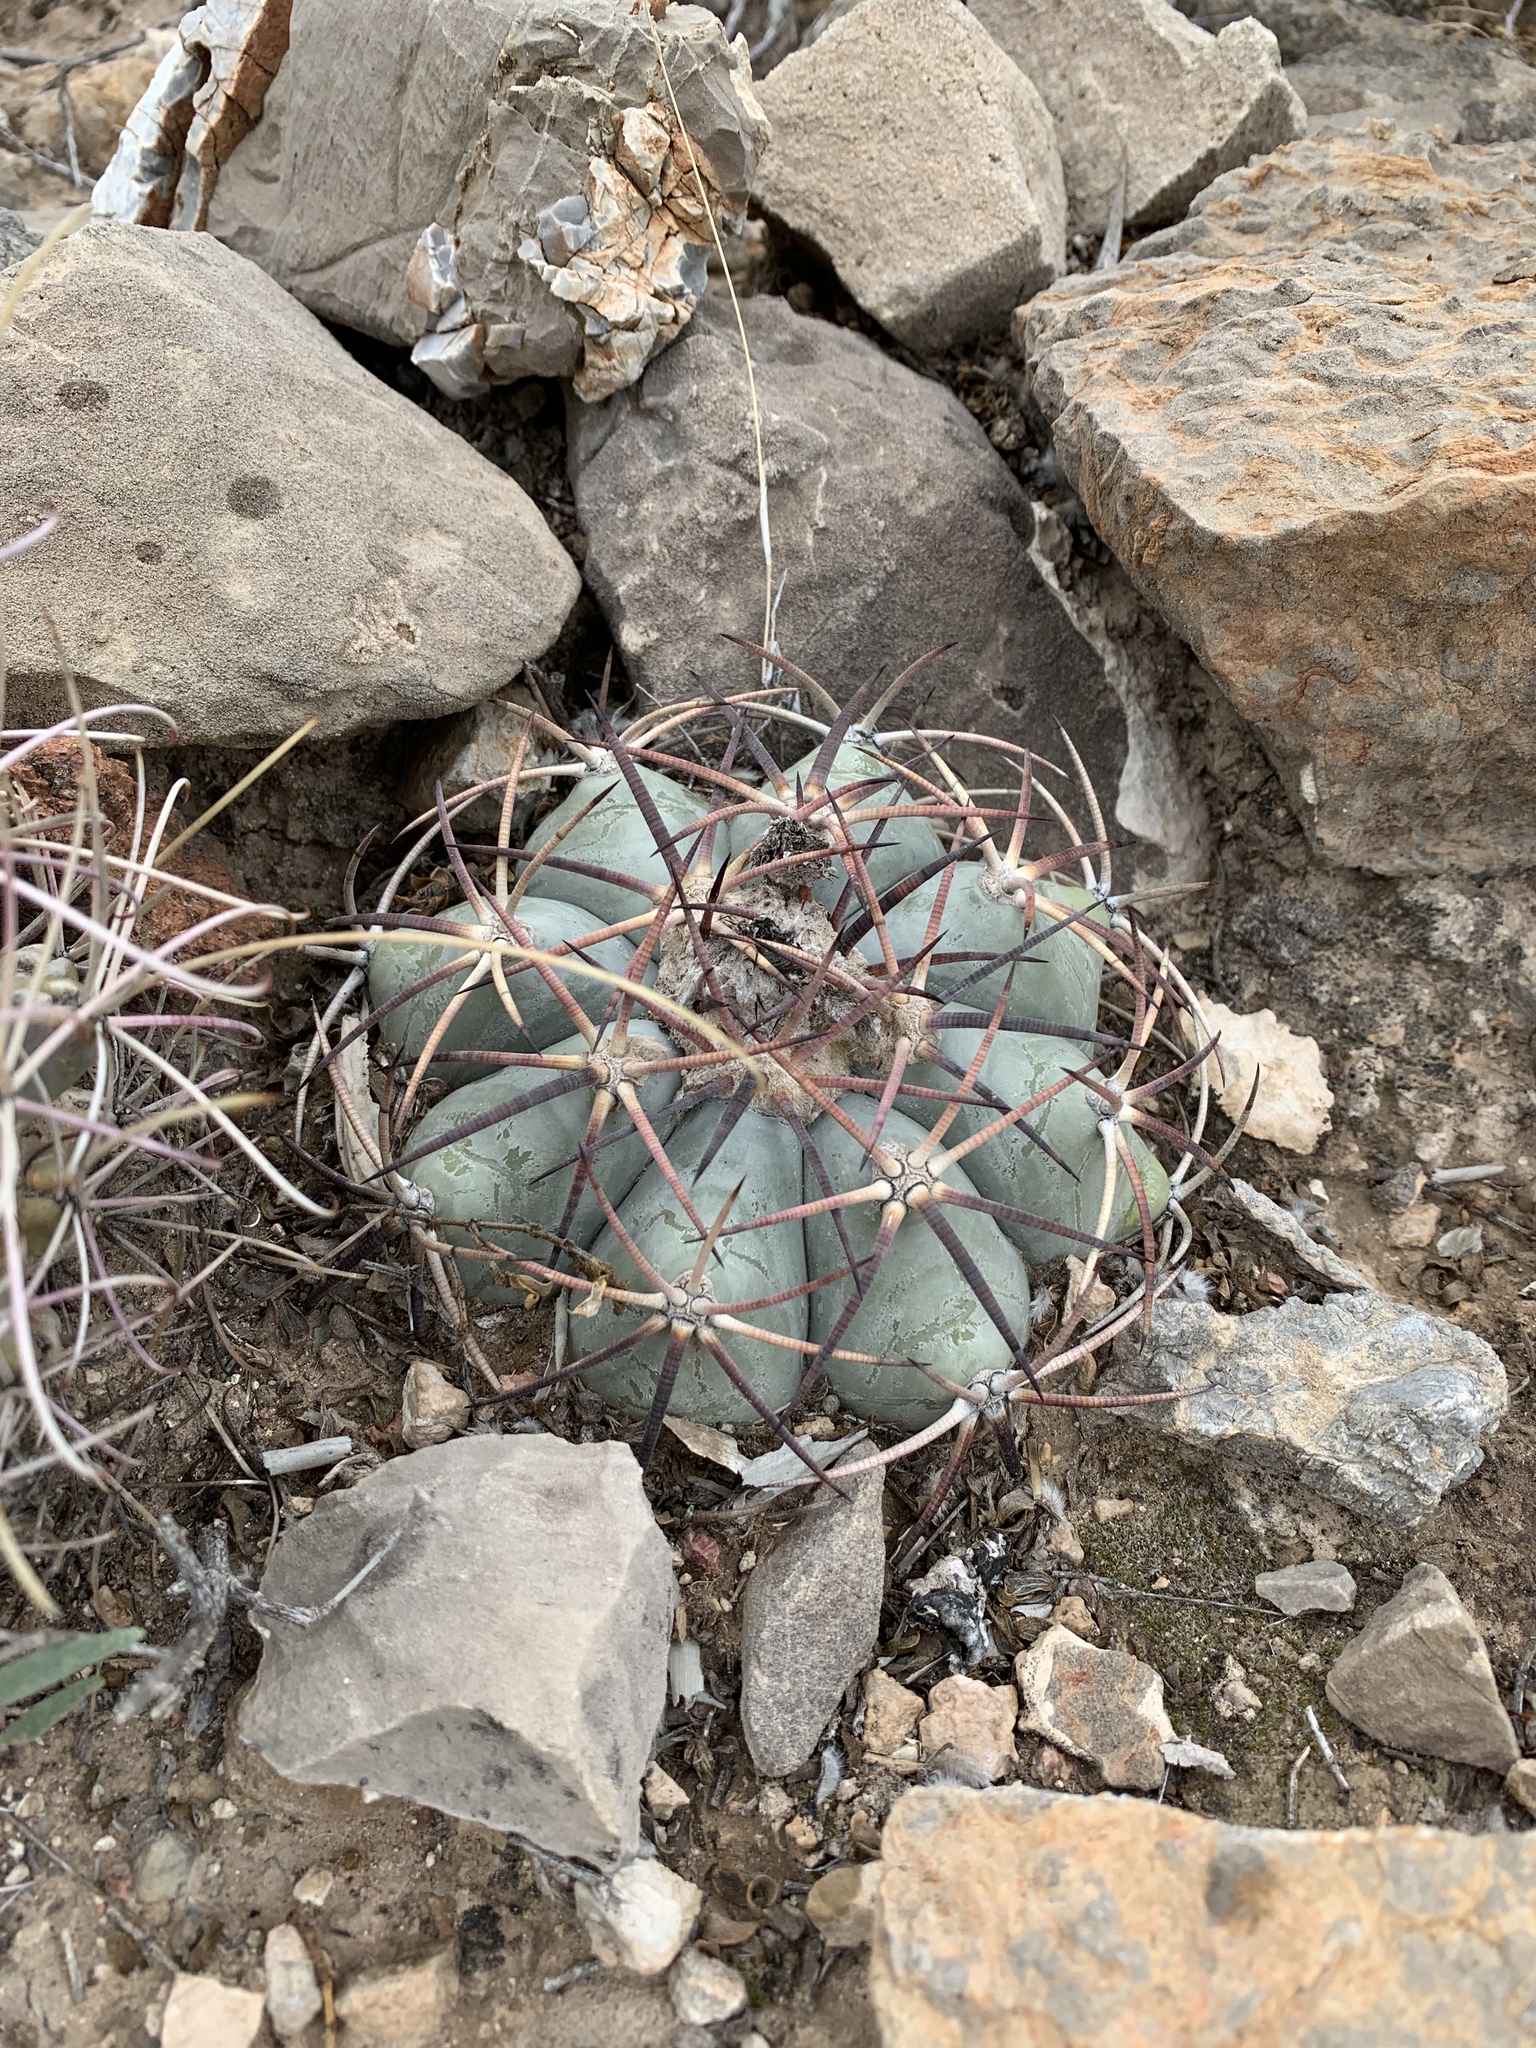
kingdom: Plantae
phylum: Tracheophyta
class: Magnoliopsida
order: Caryophyllales
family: Cactaceae
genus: Echinocactus
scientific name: Echinocactus horizonthalonius
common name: Devilshead
